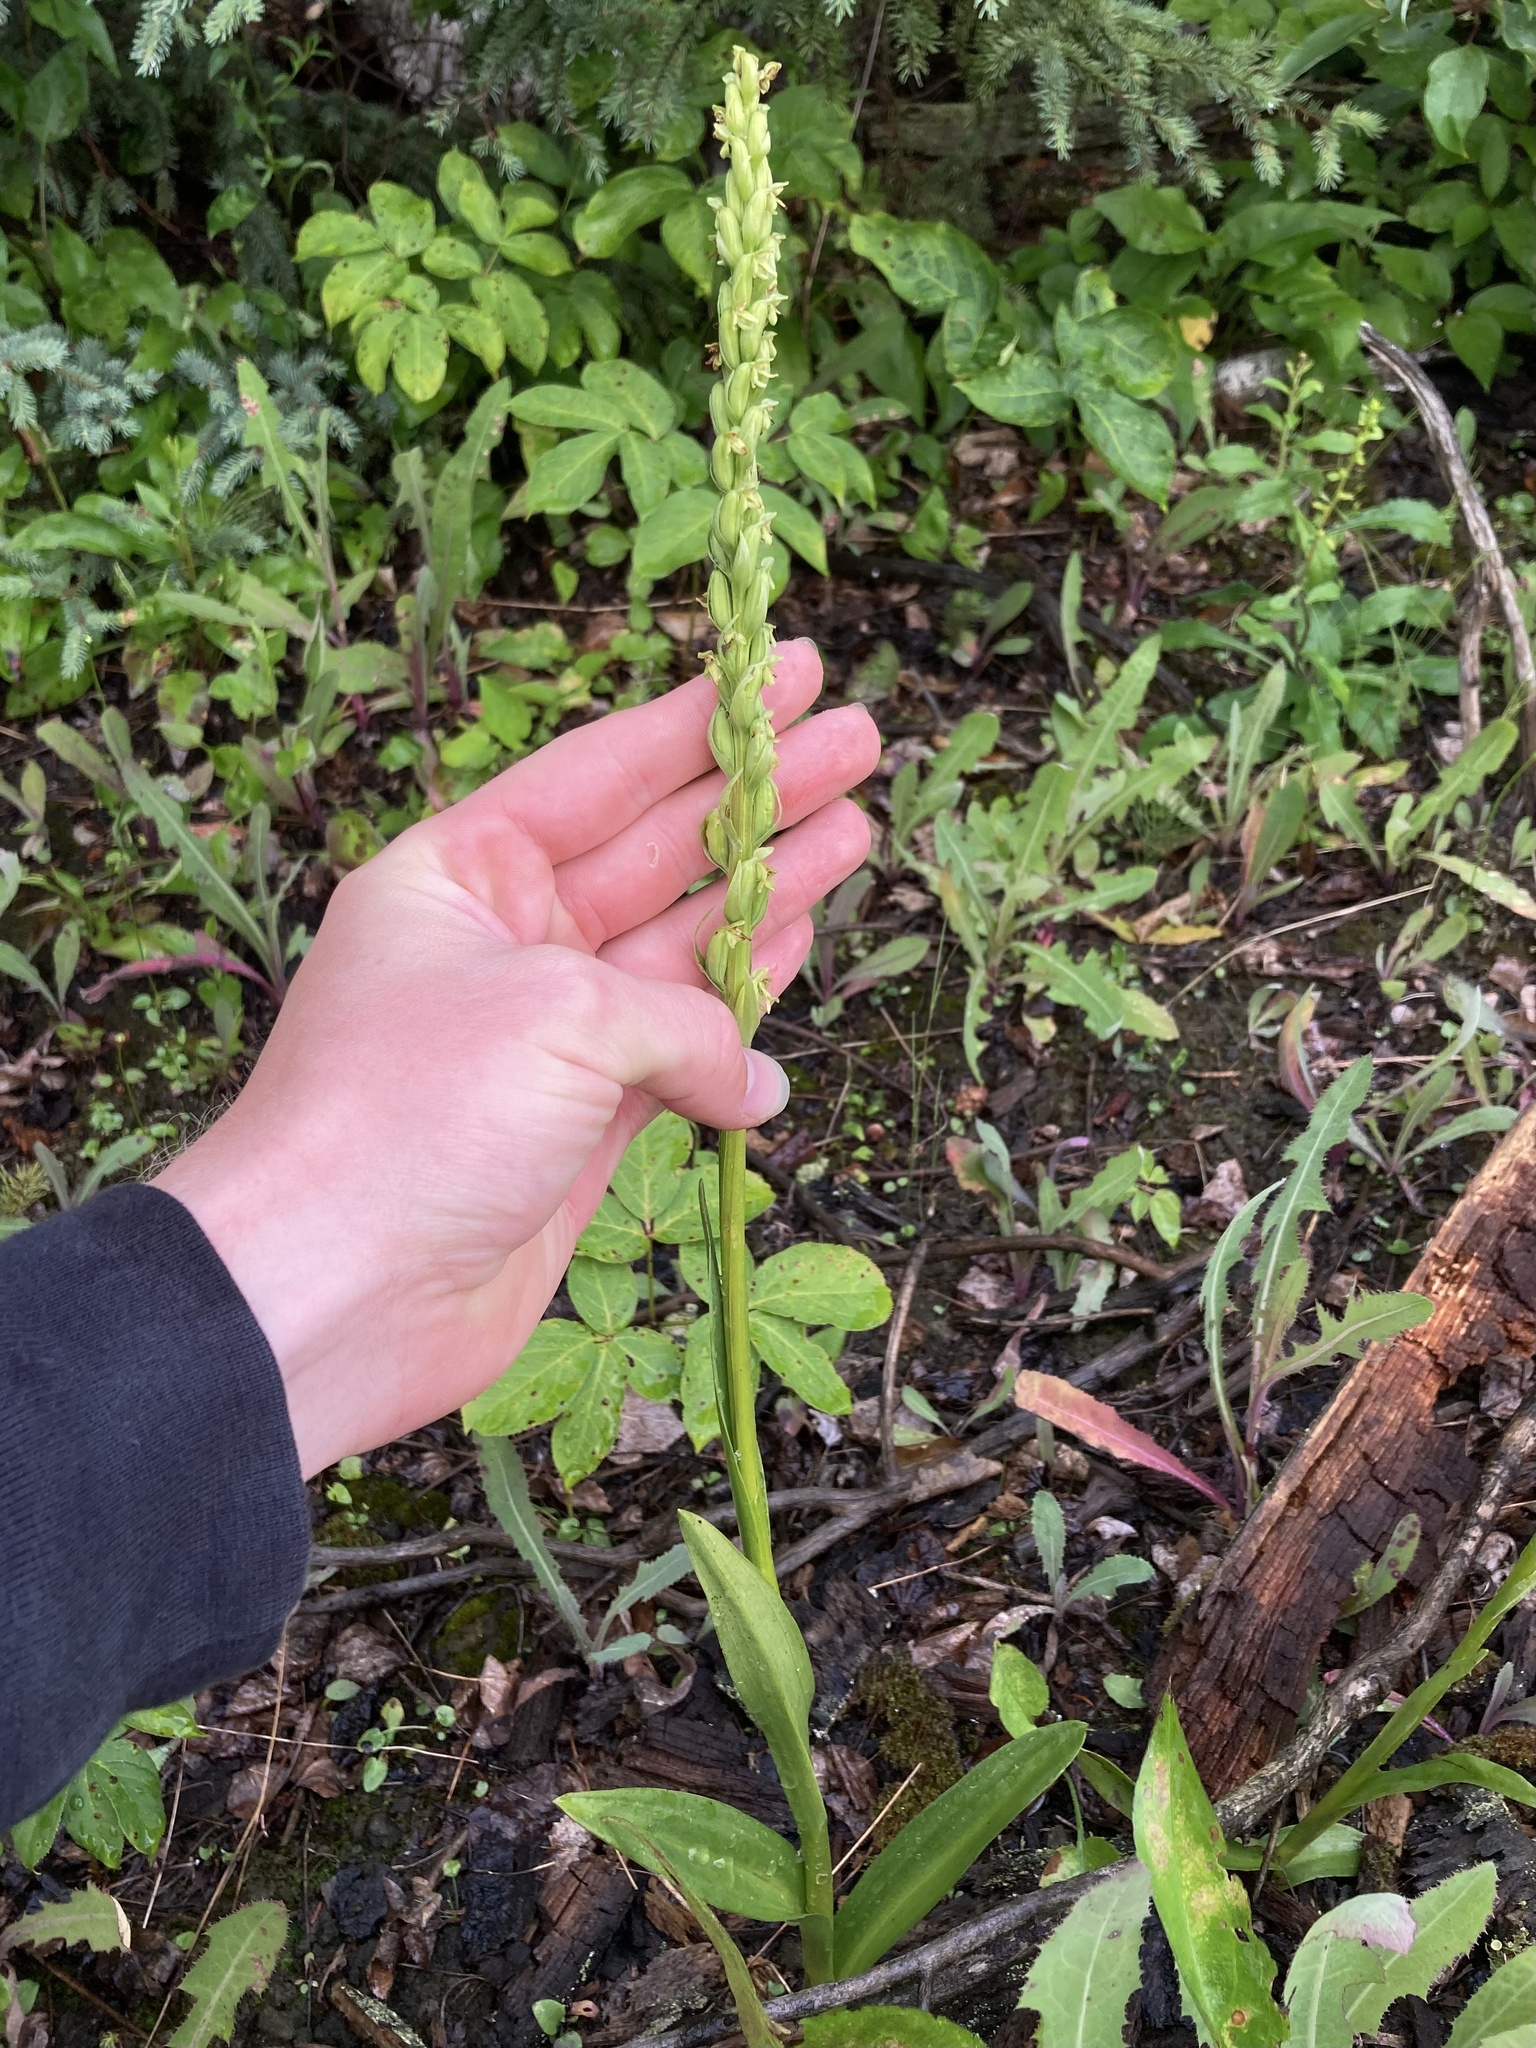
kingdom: Plantae
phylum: Tracheophyta
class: Liliopsida
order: Asparagales
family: Orchidaceae
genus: Platanthera
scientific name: Platanthera aquilonis
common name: Northern green orchid
